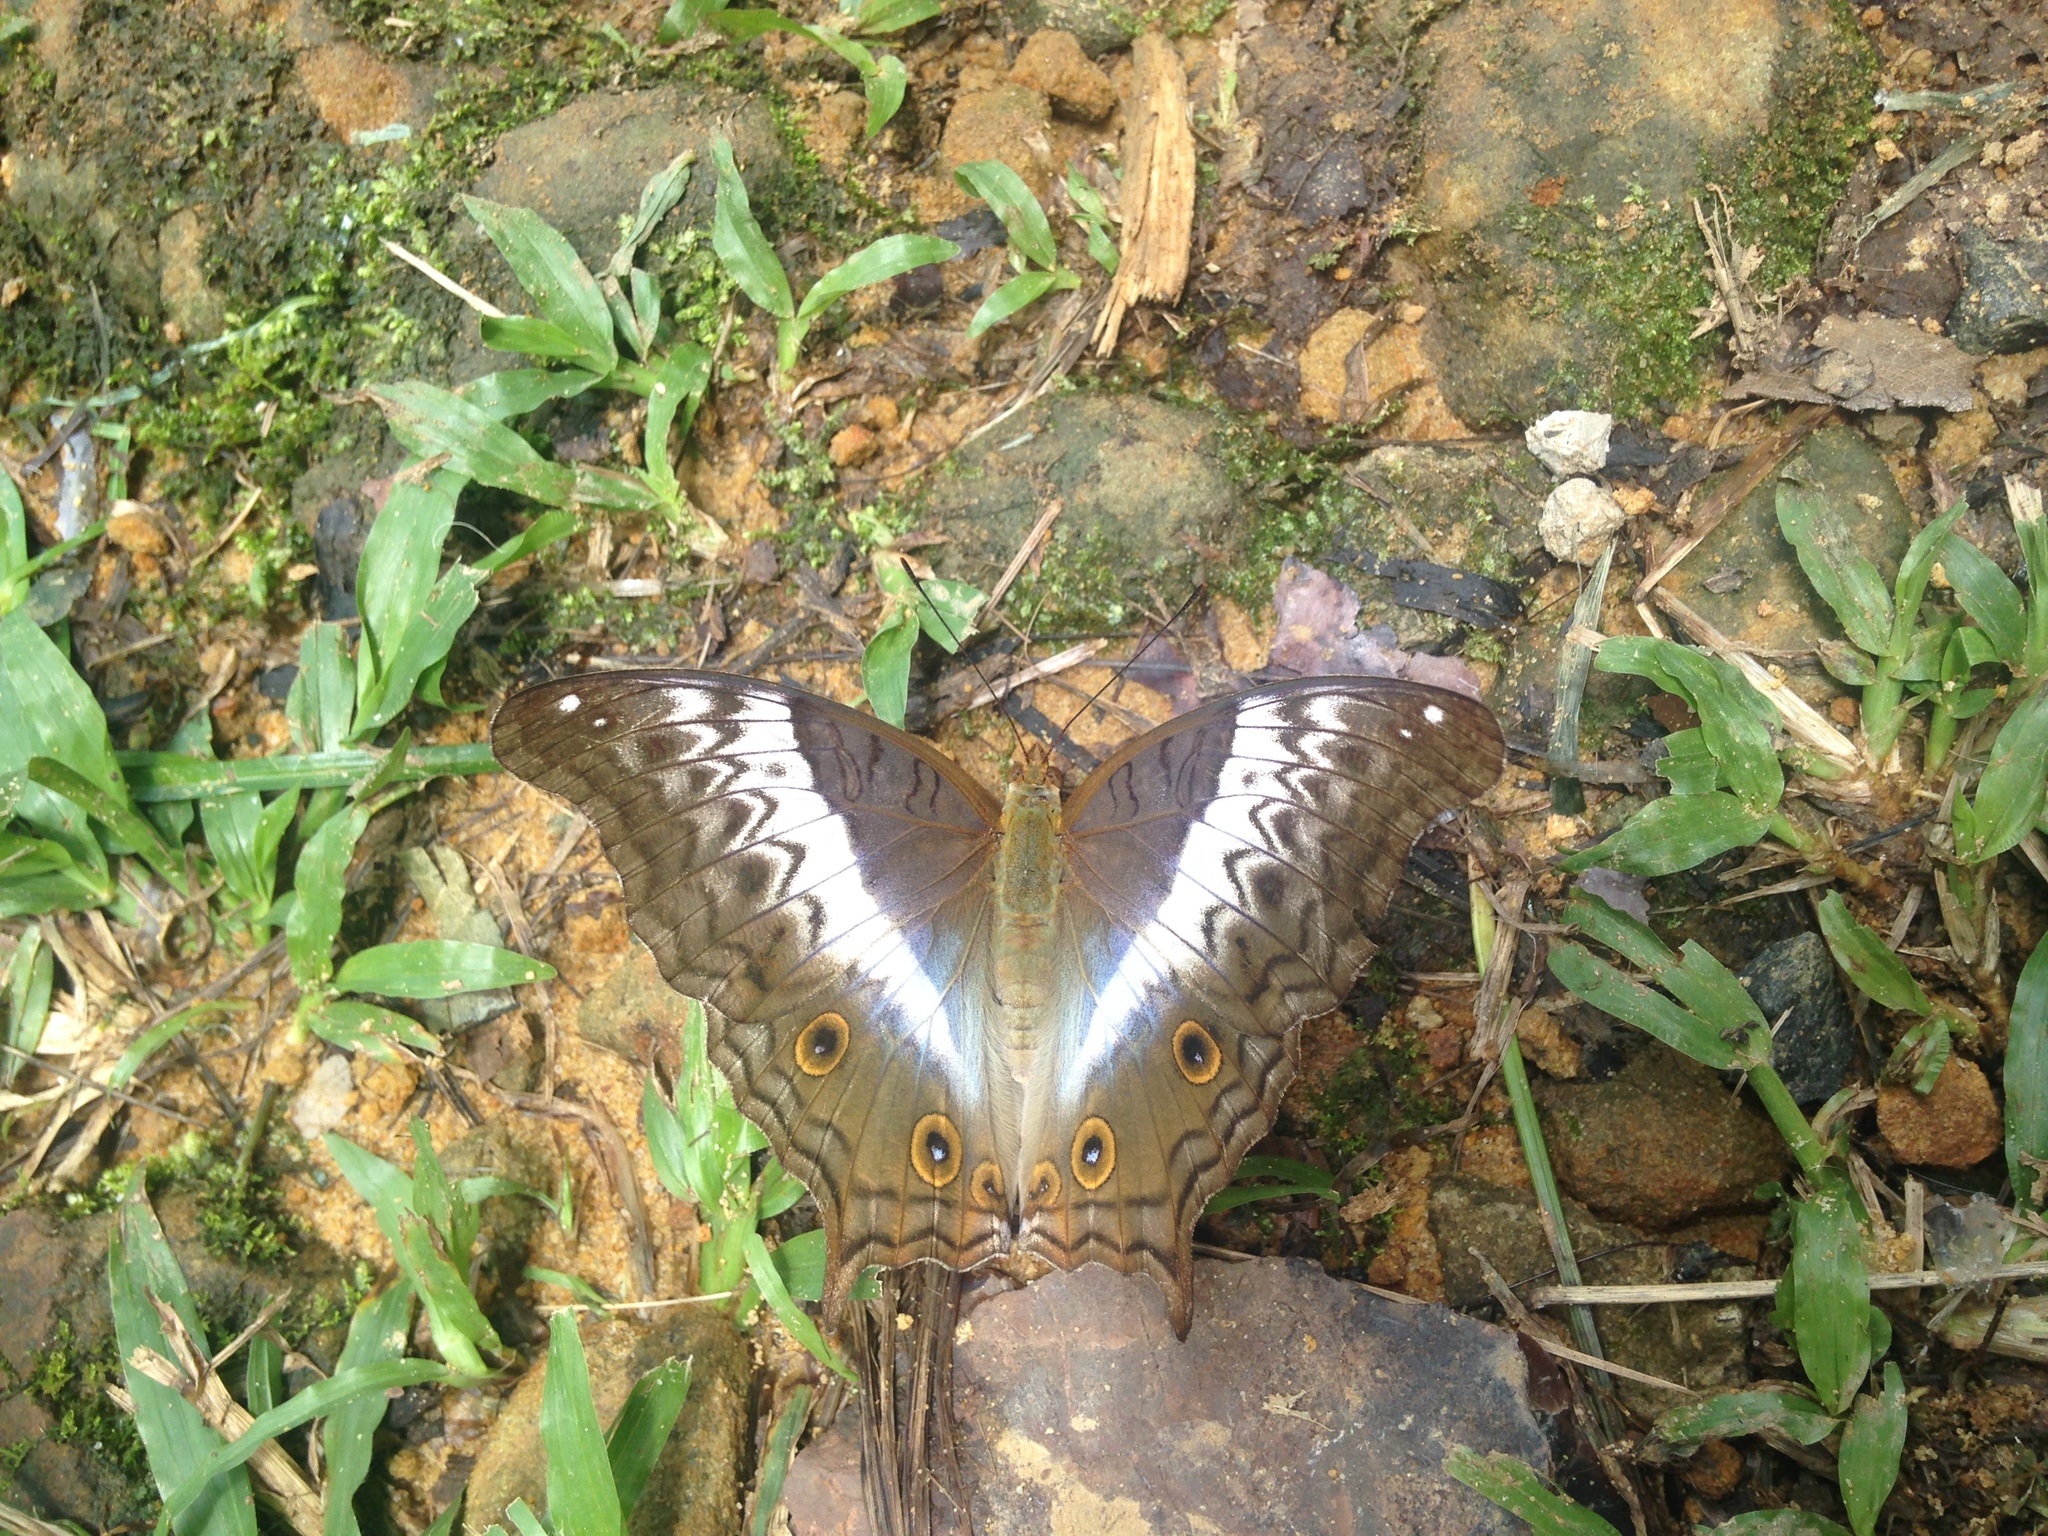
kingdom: Animalia
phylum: Arthropoda
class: Insecta
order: Lepidoptera
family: Nymphalidae
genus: Vindula
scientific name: Vindula deione
